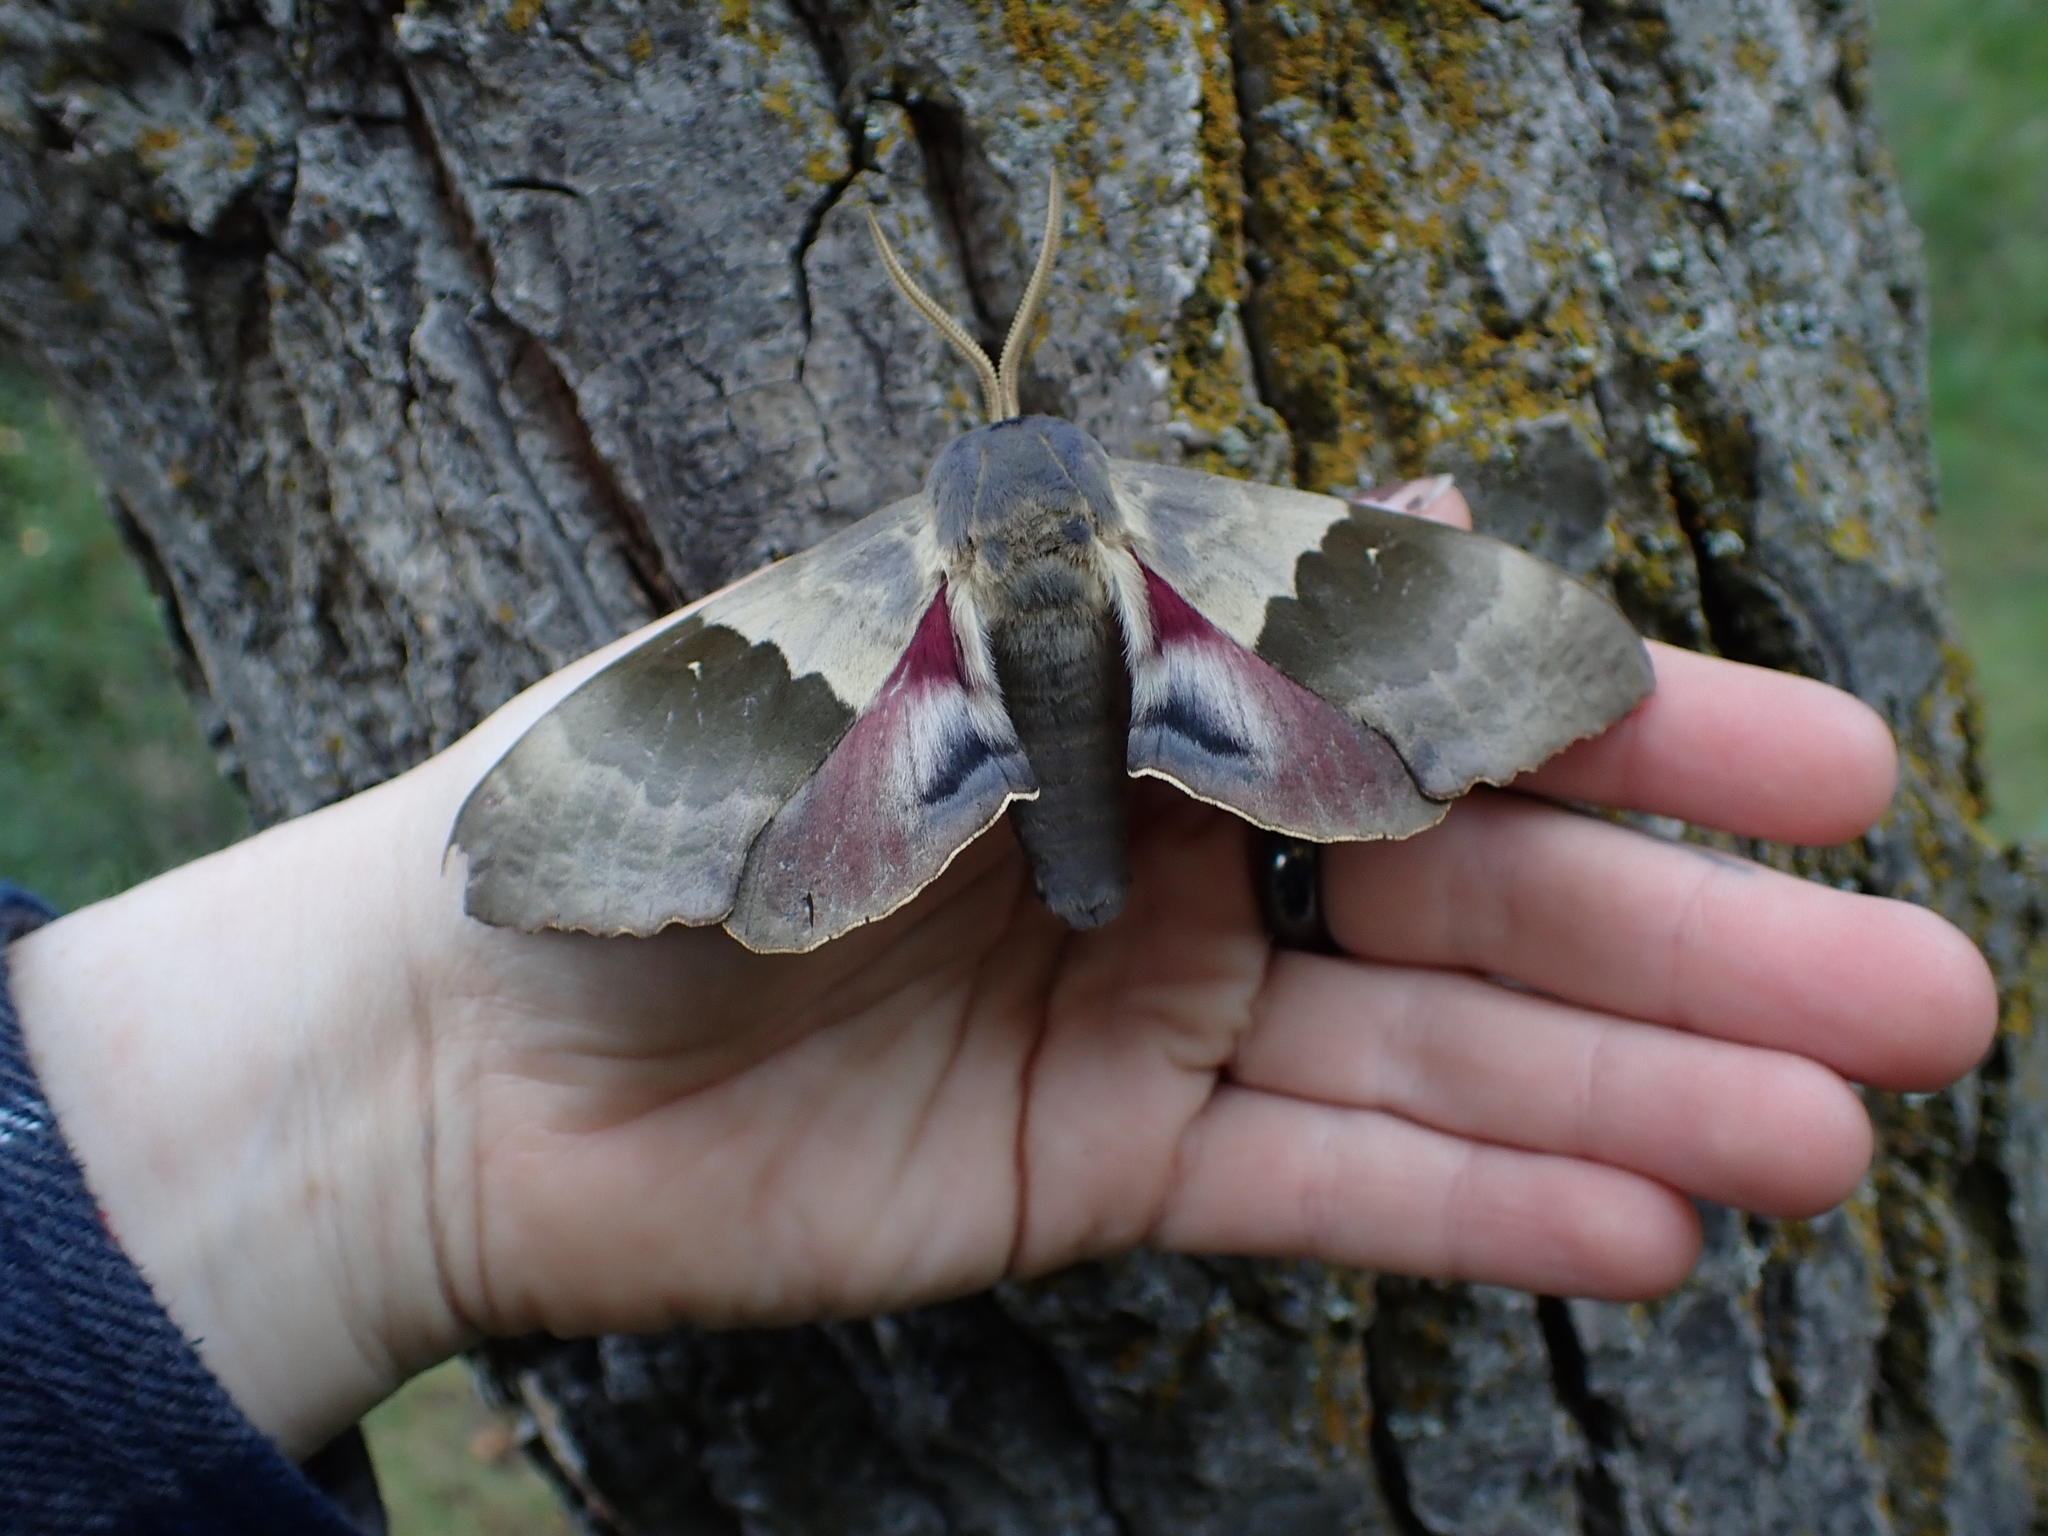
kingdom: Animalia
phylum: Arthropoda
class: Insecta
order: Lepidoptera
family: Sphingidae
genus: Pachysphinx
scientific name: Pachysphinx modesta
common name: Big poplar sphinx
